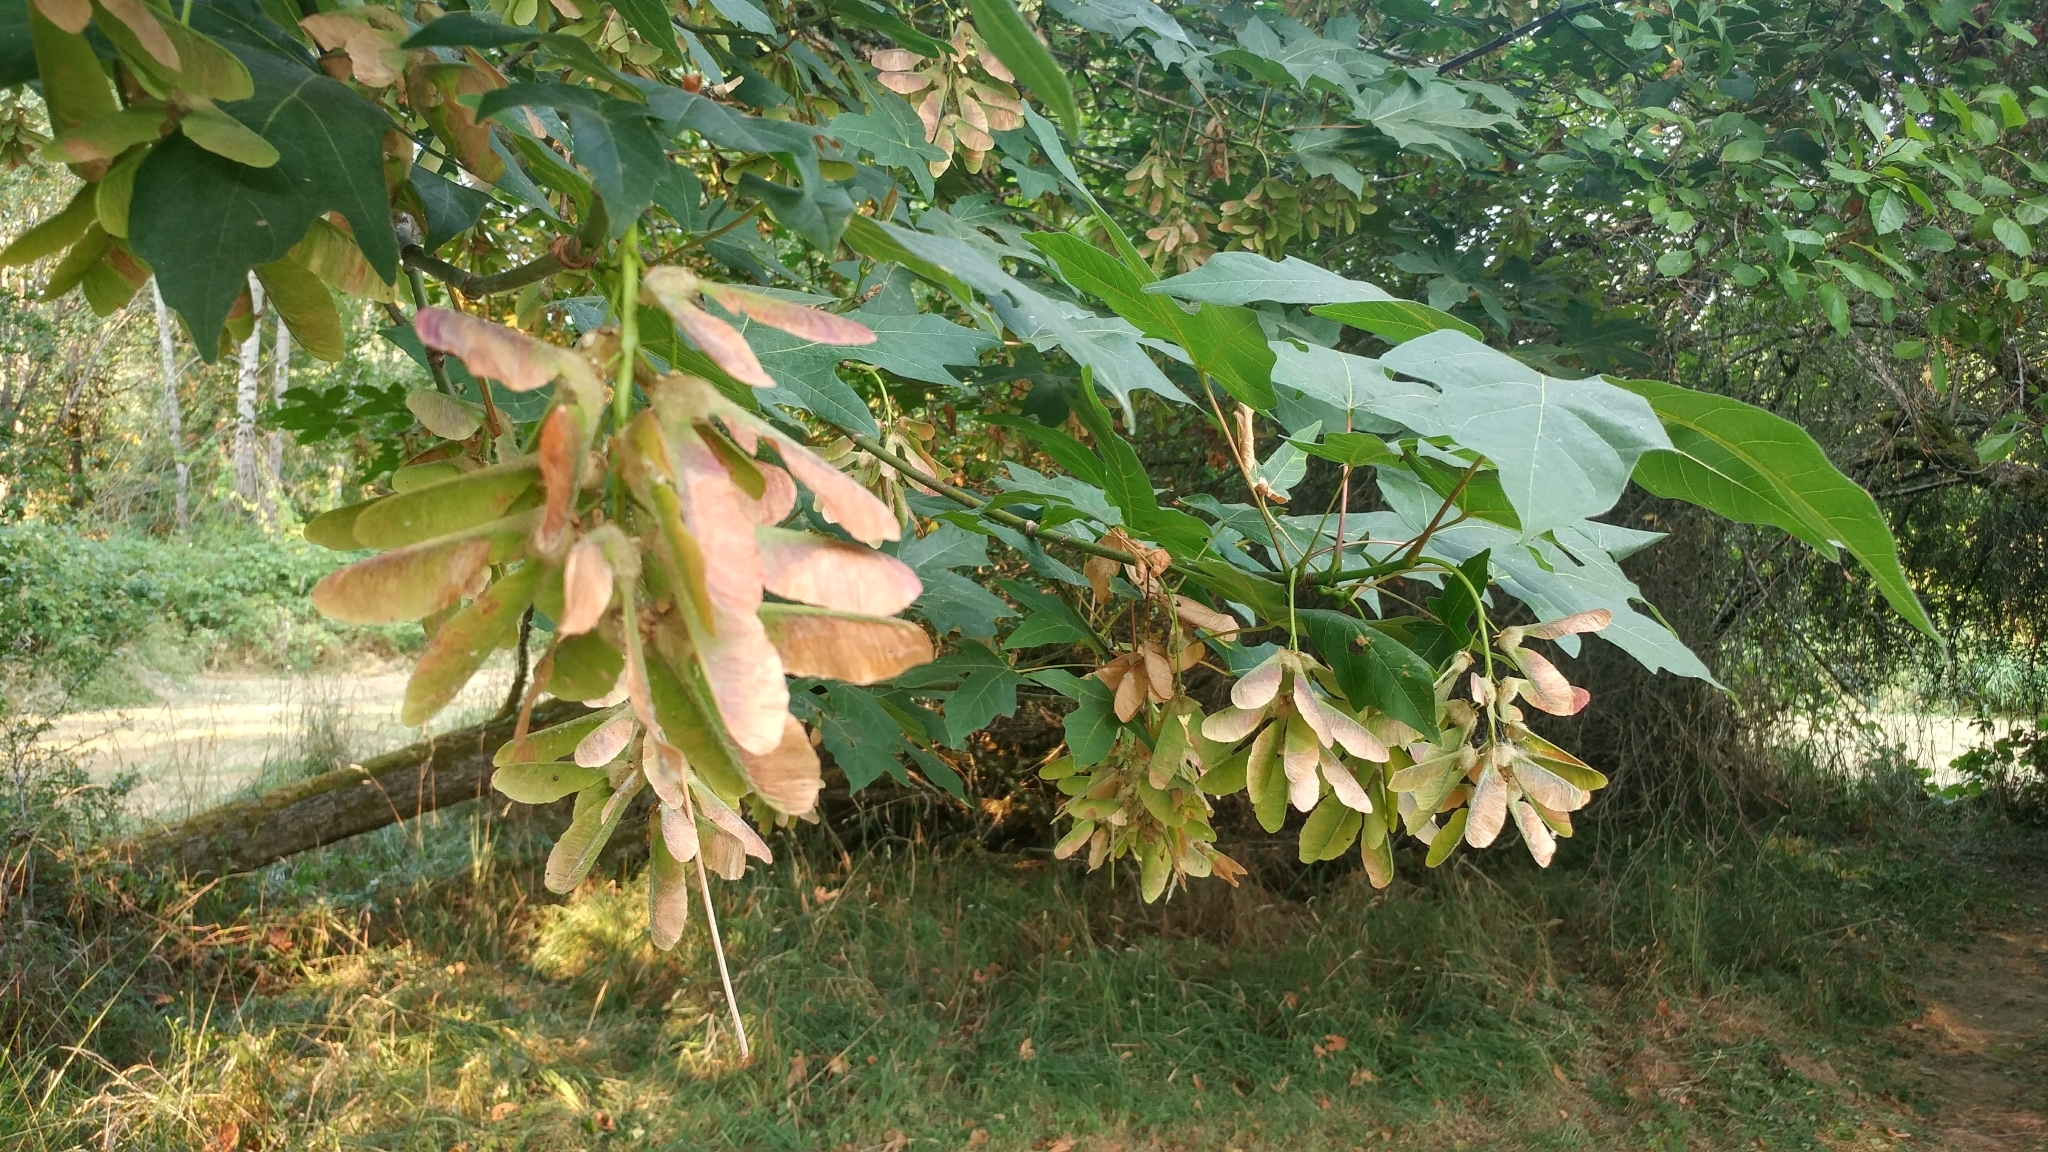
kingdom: Plantae
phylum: Tracheophyta
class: Magnoliopsida
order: Sapindales
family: Sapindaceae
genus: Acer
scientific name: Acer macrophyllum
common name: Oregon maple
